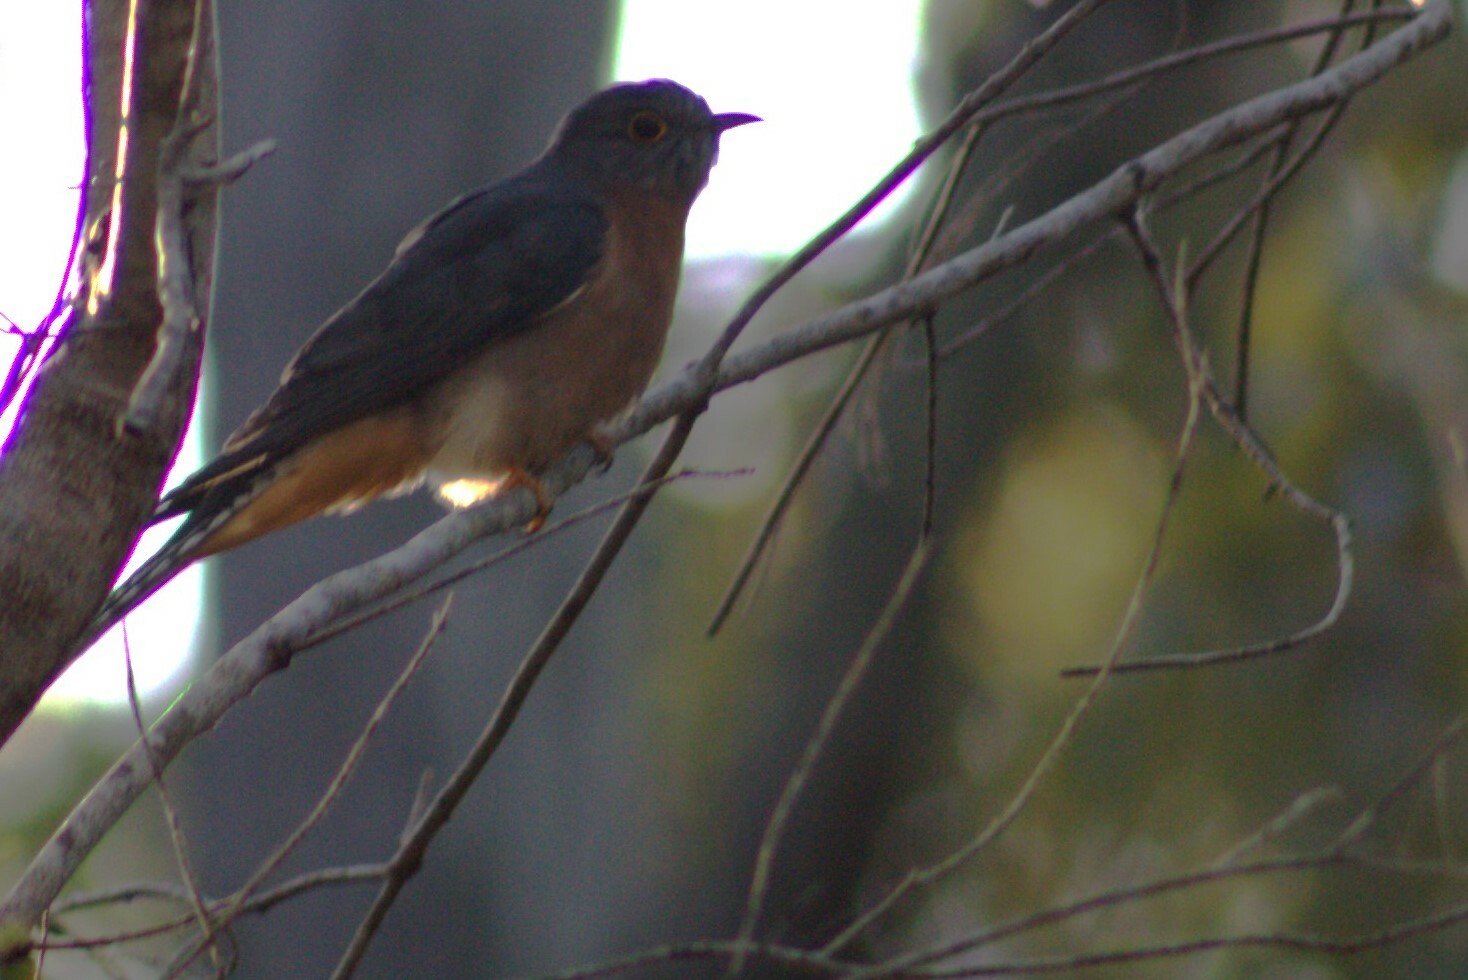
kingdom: Animalia
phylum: Chordata
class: Aves
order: Cuculiformes
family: Cuculidae
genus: Cacomantis
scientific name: Cacomantis flabelliformis
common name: Fan-tailed cuckoo
